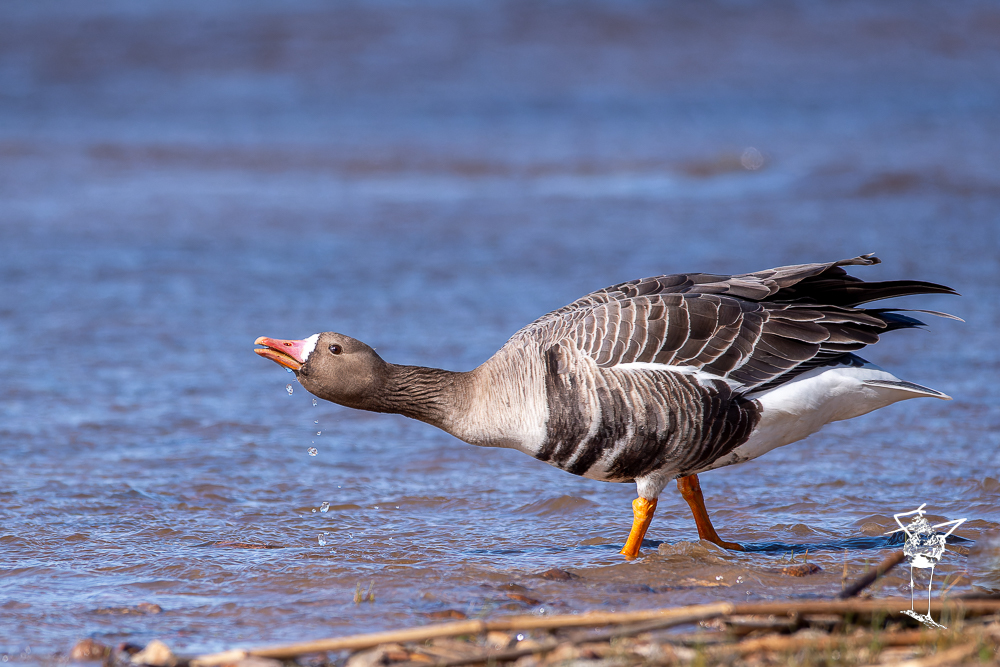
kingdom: Animalia
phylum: Chordata
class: Aves
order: Anseriformes
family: Anatidae
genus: Anser
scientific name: Anser albifrons
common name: Greater white-fronted goose
